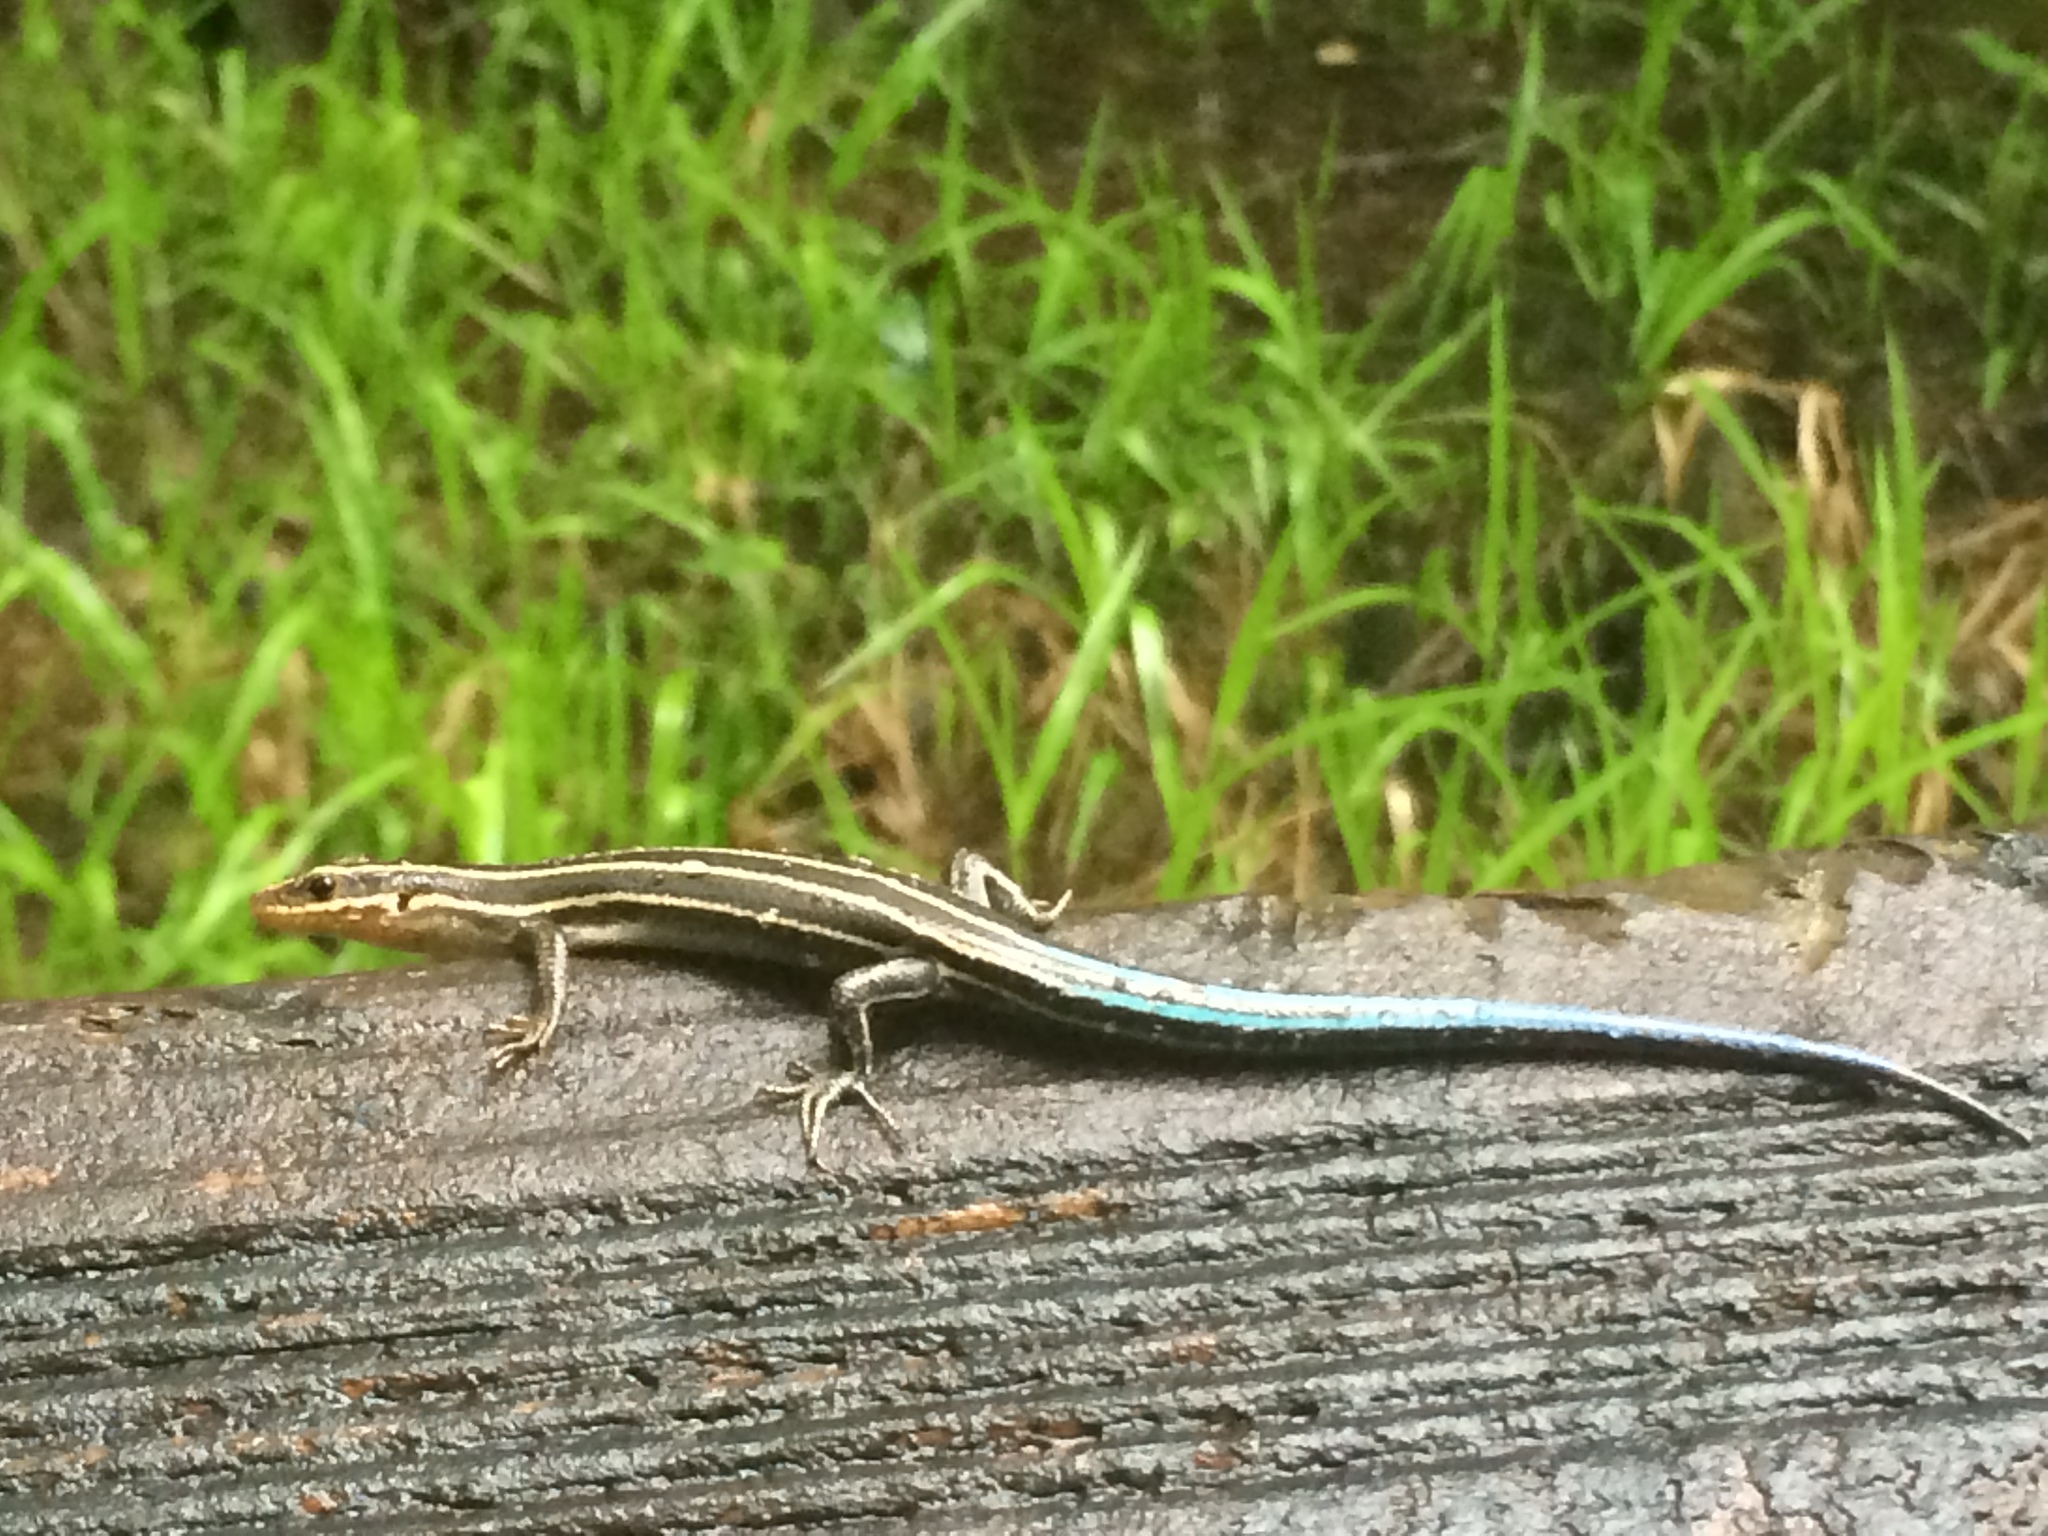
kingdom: Animalia
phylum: Chordata
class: Squamata
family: Scincidae
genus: Plestiodon
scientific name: Plestiodon fasciatus
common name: Five-lined skink
